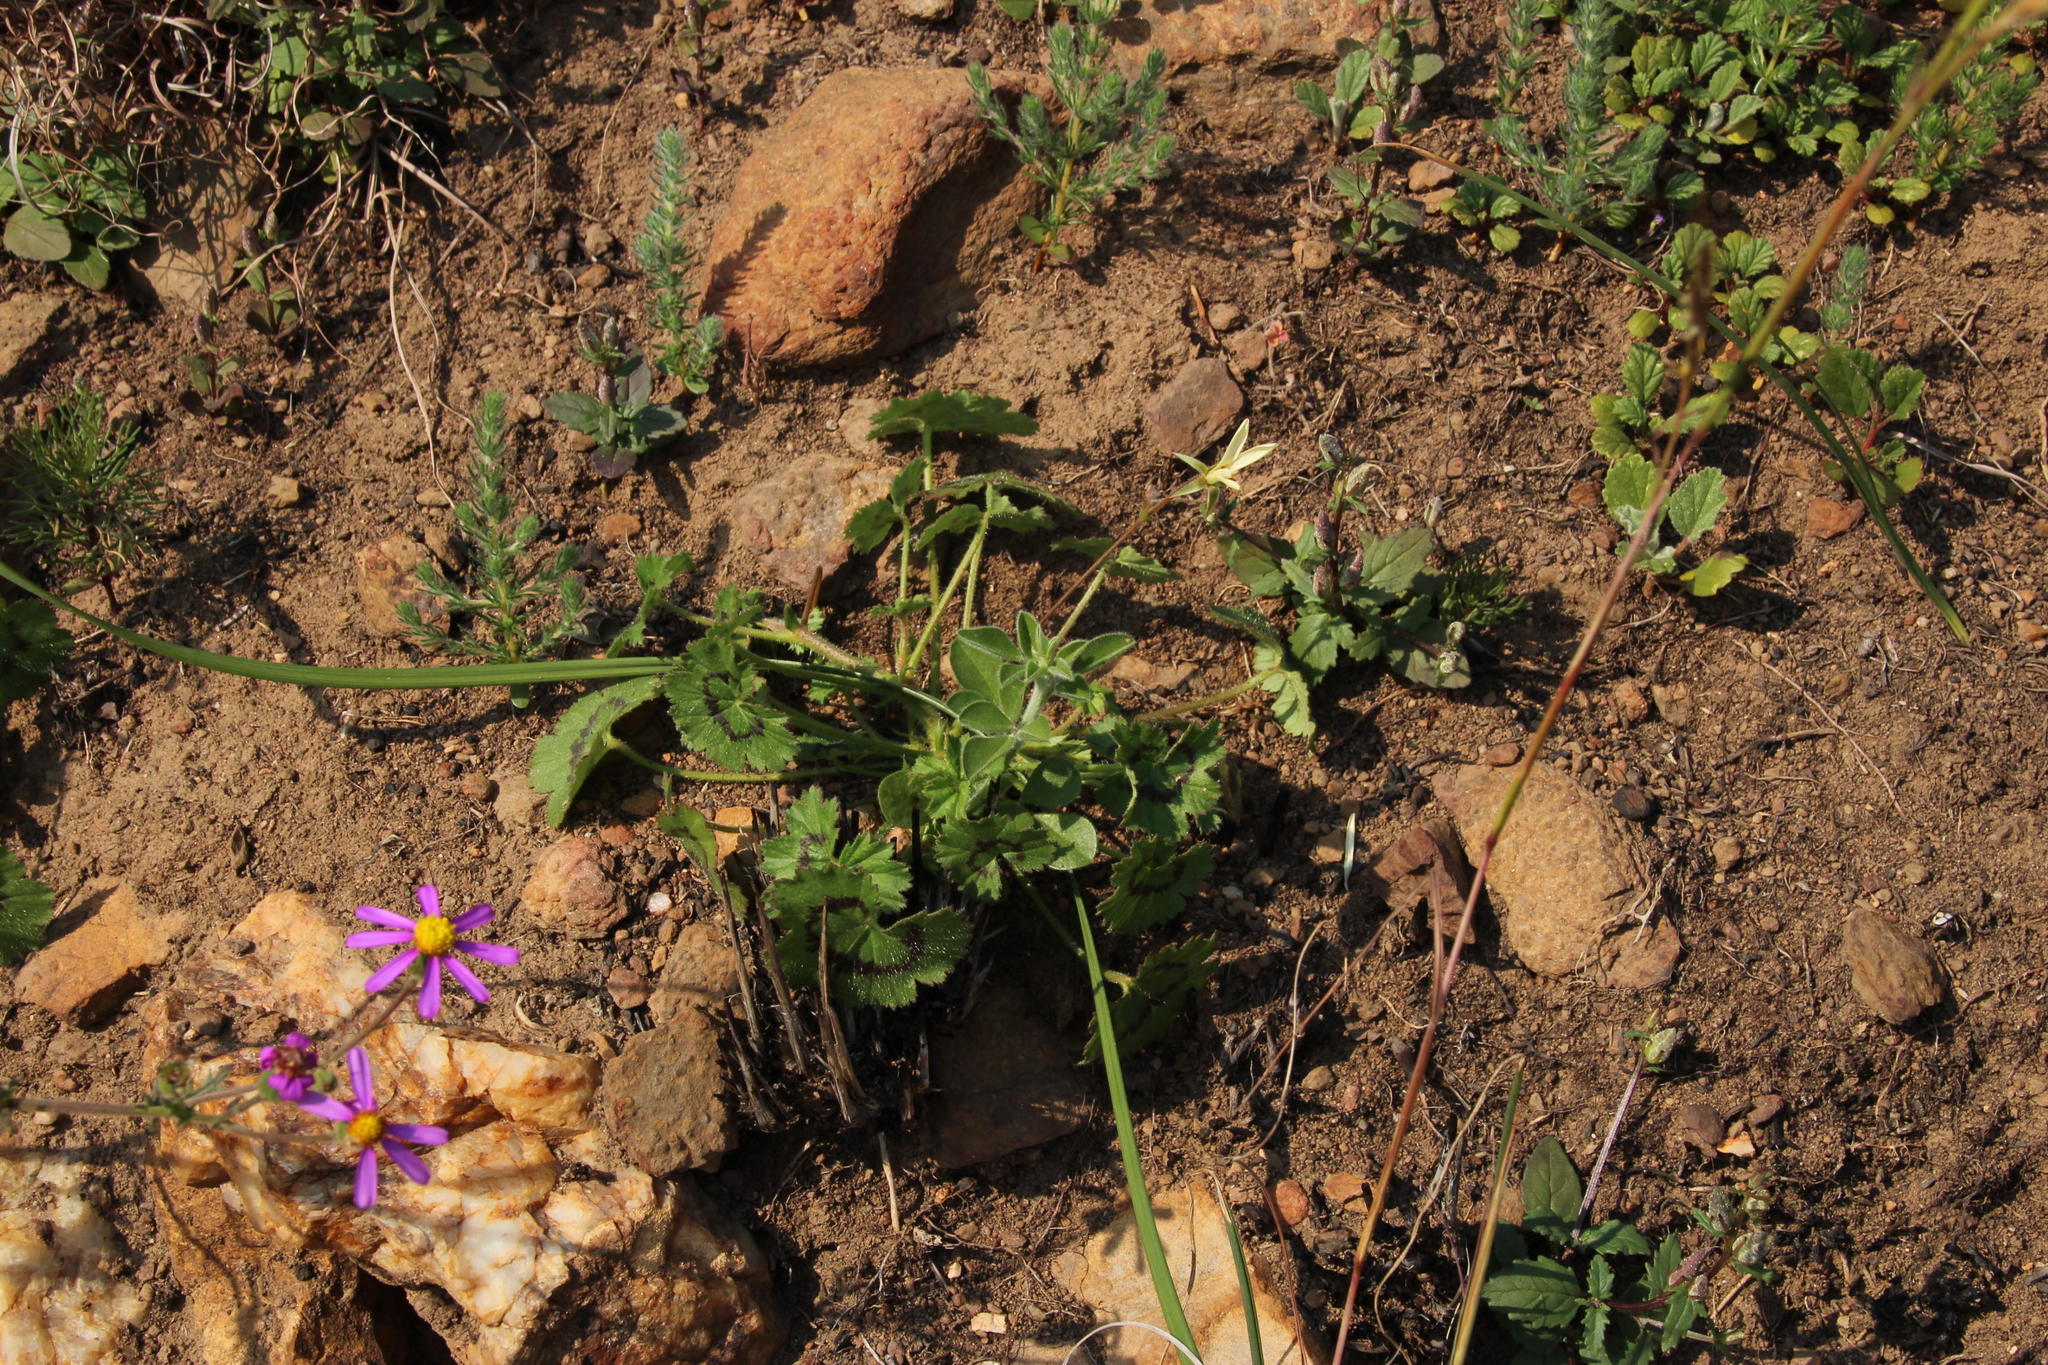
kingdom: Plantae
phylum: Tracheophyta
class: Magnoliopsida
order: Geraniales
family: Geraniaceae
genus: Pelargonium
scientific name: Pelargonium elongatum
